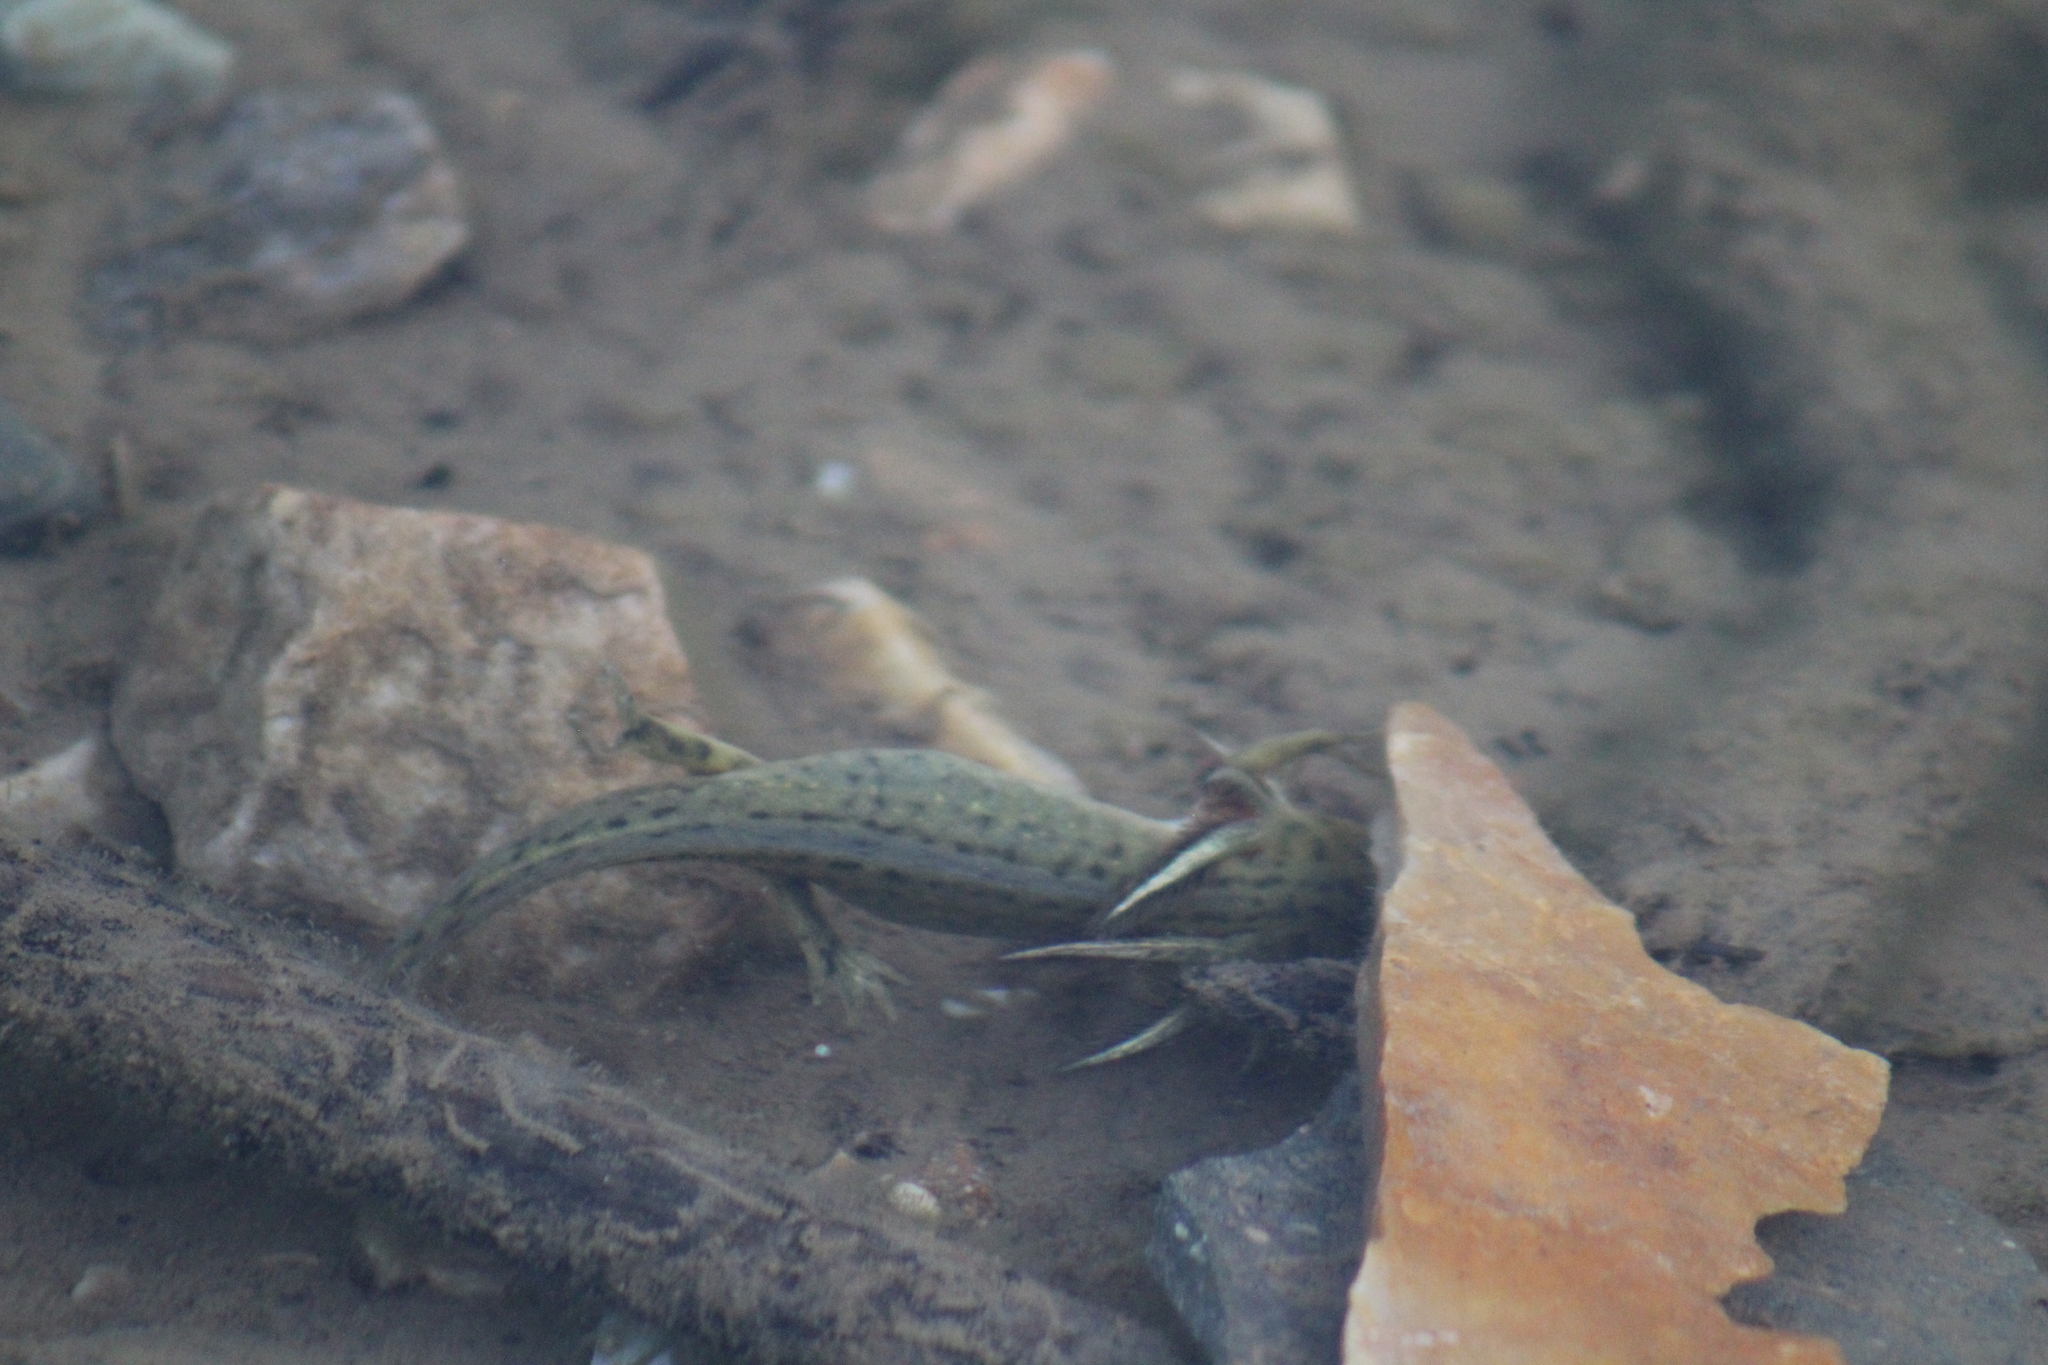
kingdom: Animalia
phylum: Chordata
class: Amphibia
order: Caudata
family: Ambystomatidae
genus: Ambystoma
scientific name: Ambystoma mavortium
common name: Western tiger salamander
